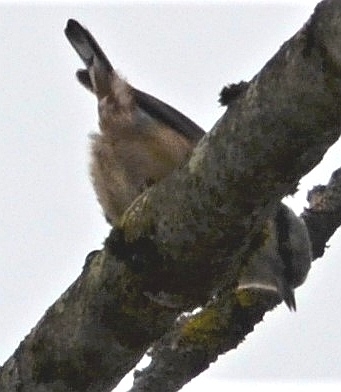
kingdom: Animalia
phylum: Chordata
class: Aves
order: Passeriformes
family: Sittidae
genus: Sitta
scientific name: Sitta europaea
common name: Eurasian nuthatch
